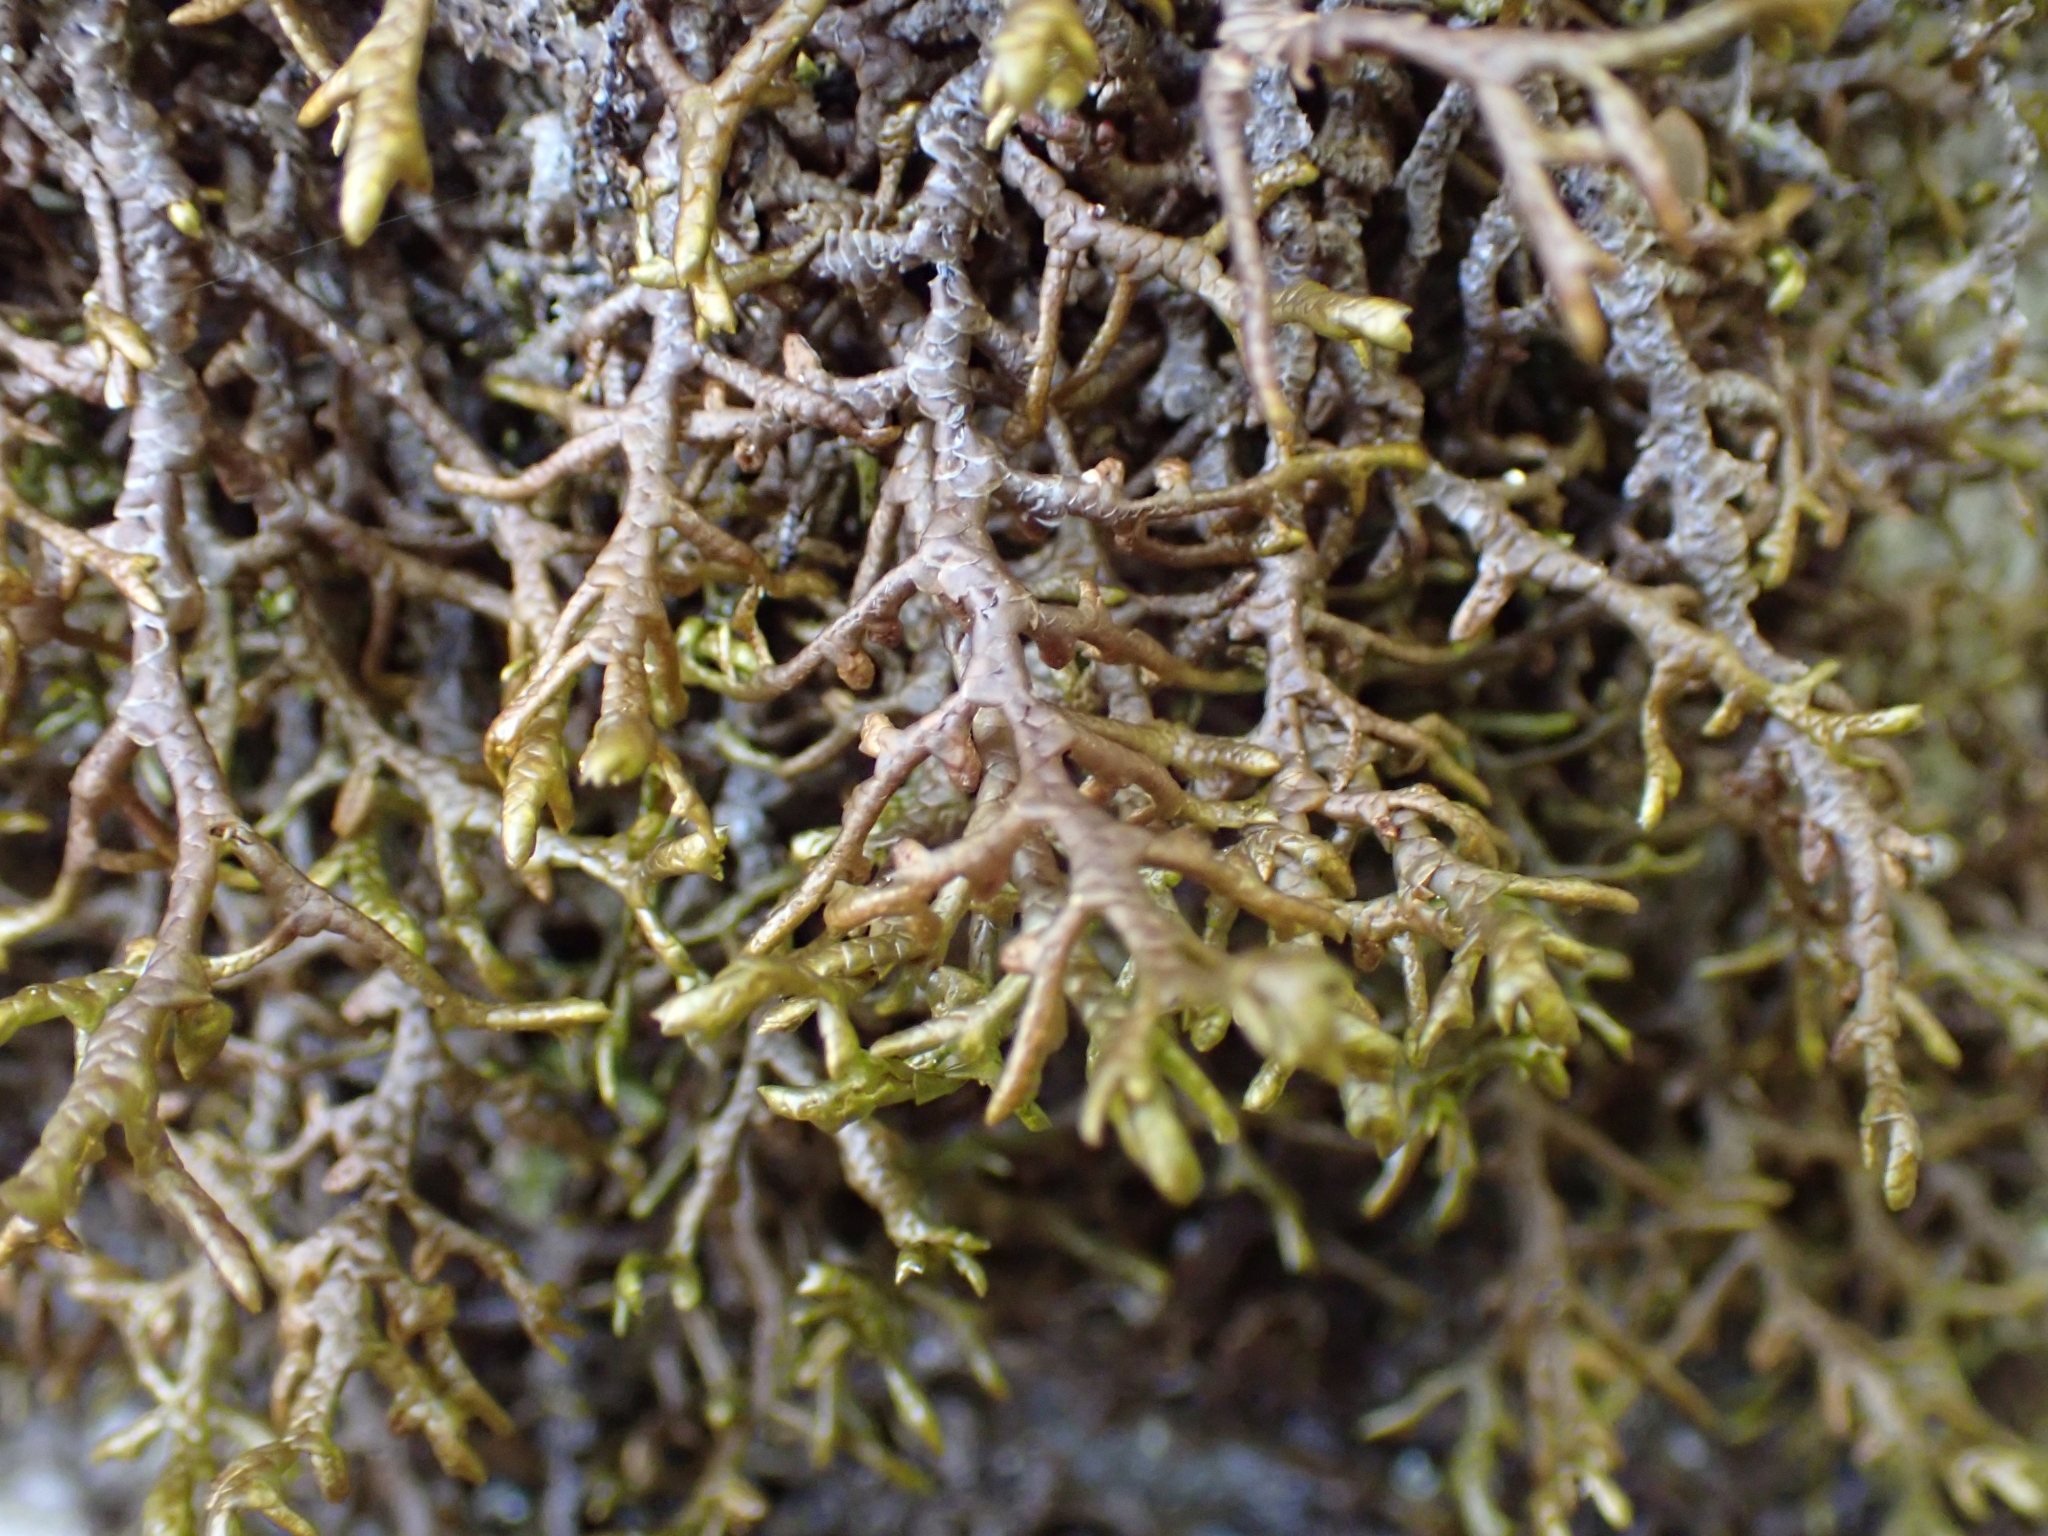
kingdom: Plantae
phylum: Marchantiophyta
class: Jungermanniopsida
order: Porellales
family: Porellaceae
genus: Porella
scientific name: Porella navicularis
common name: Tree ruffle liverwort
